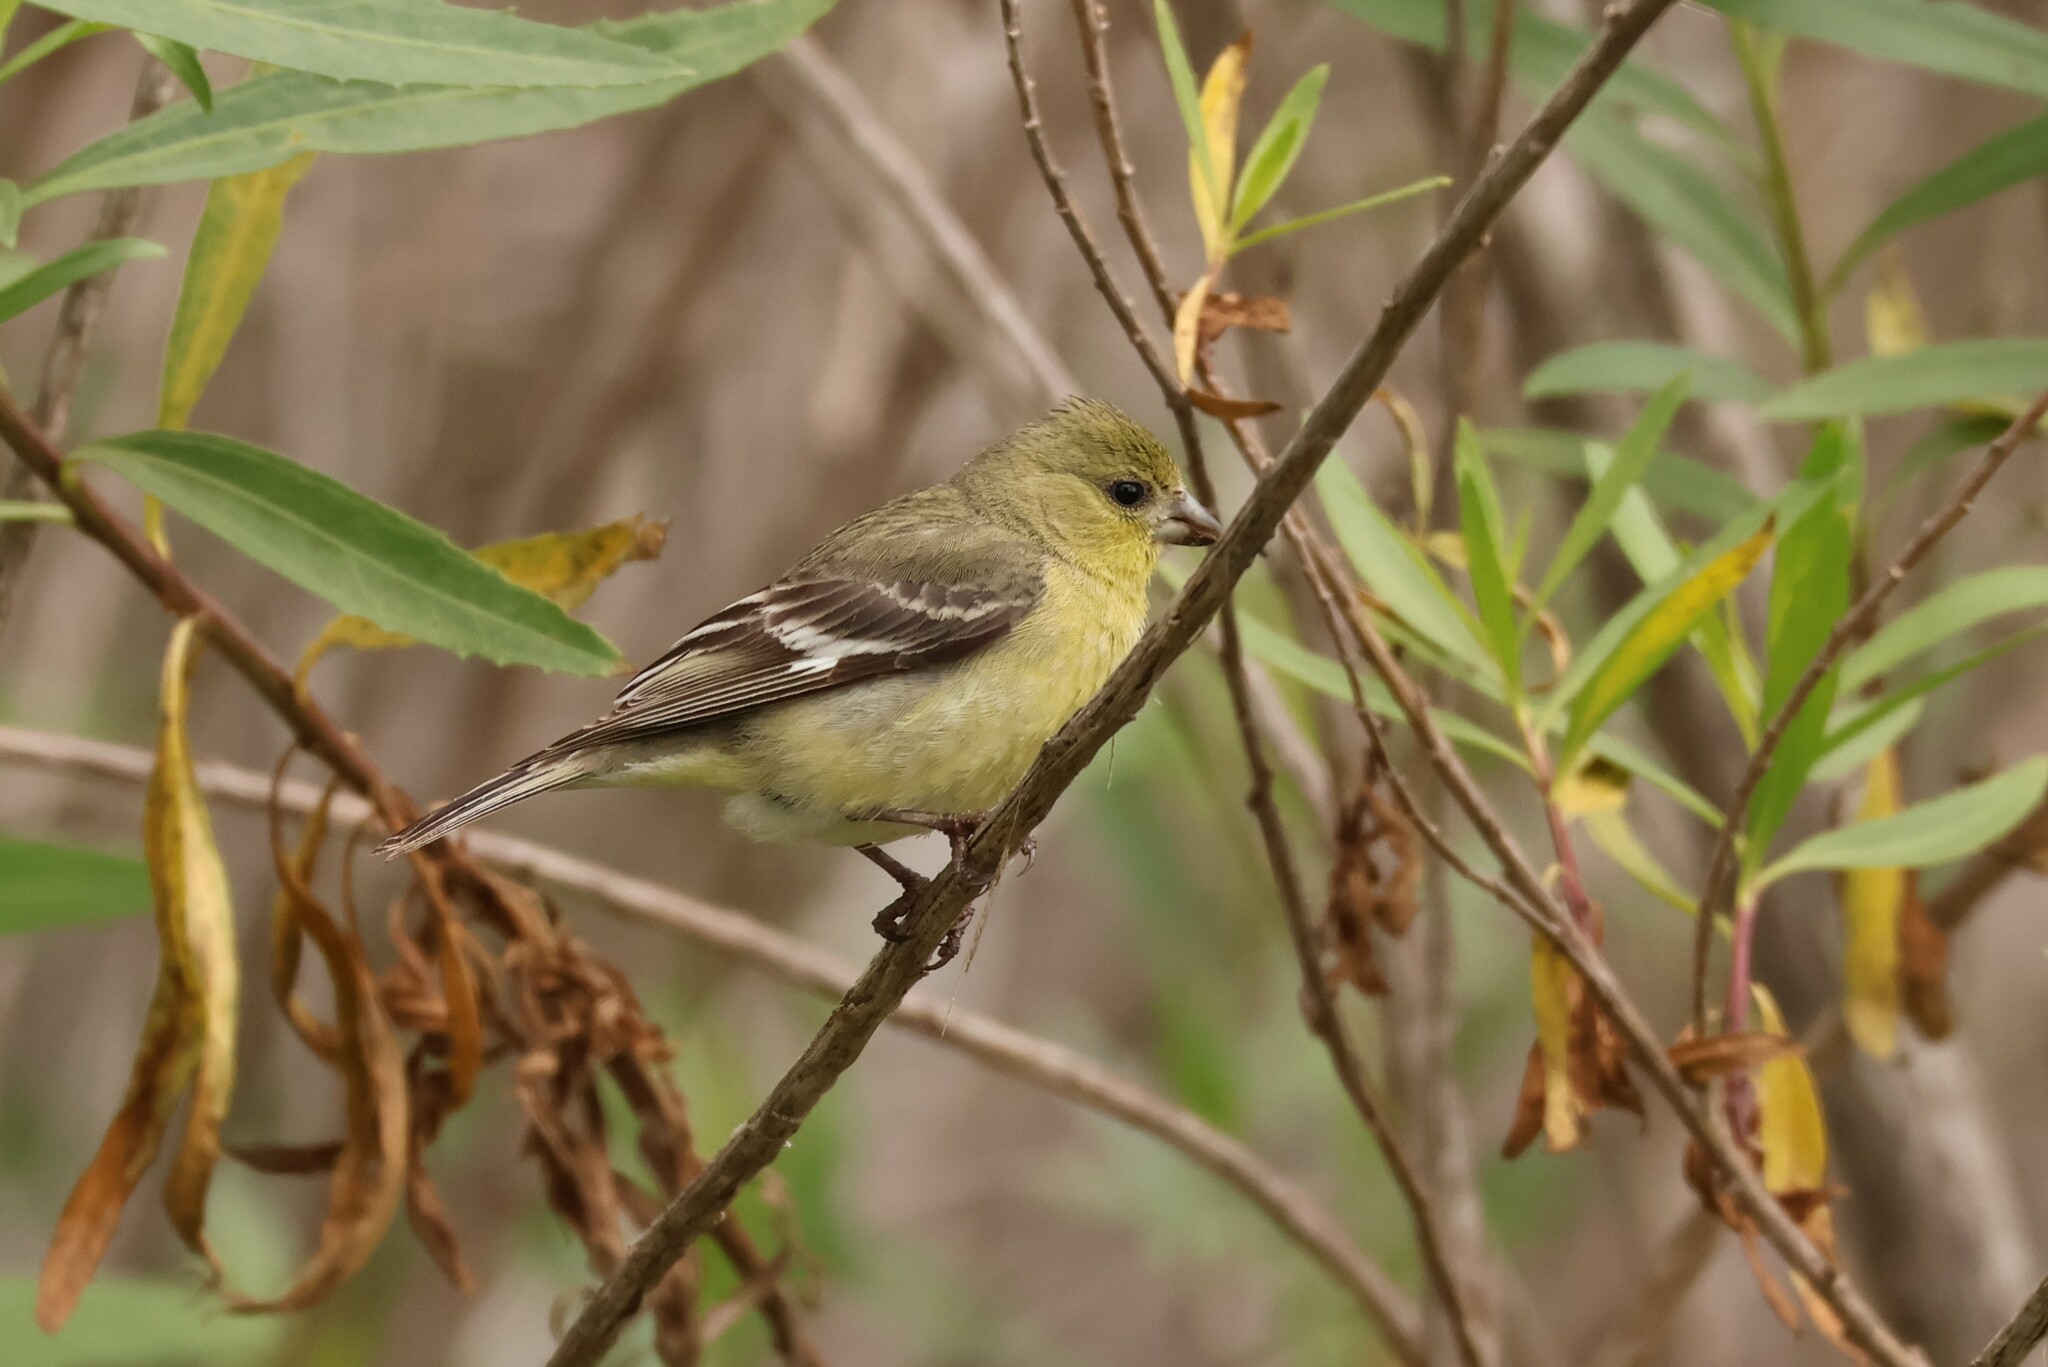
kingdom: Animalia
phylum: Chordata
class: Aves
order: Passeriformes
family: Fringillidae
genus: Spinus
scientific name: Spinus psaltria
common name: Lesser goldfinch
